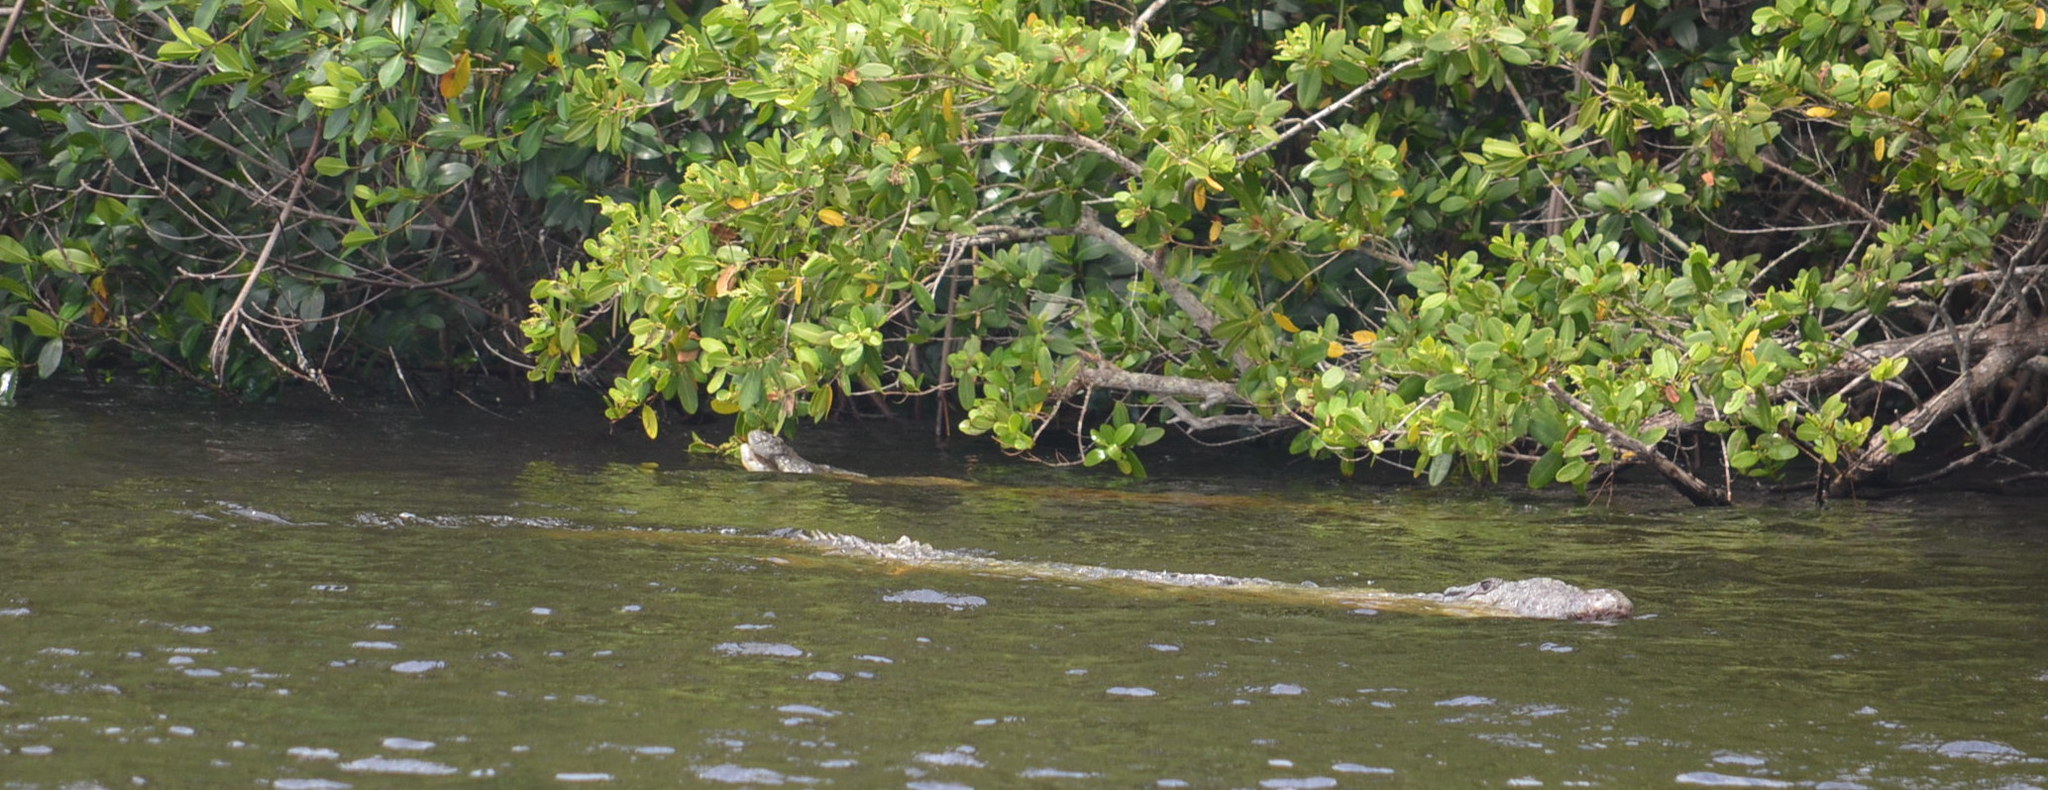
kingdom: Animalia
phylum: Chordata
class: Crocodylia
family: Crocodylidae
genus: Crocodylus
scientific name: Crocodylus acutus
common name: American crocodile
